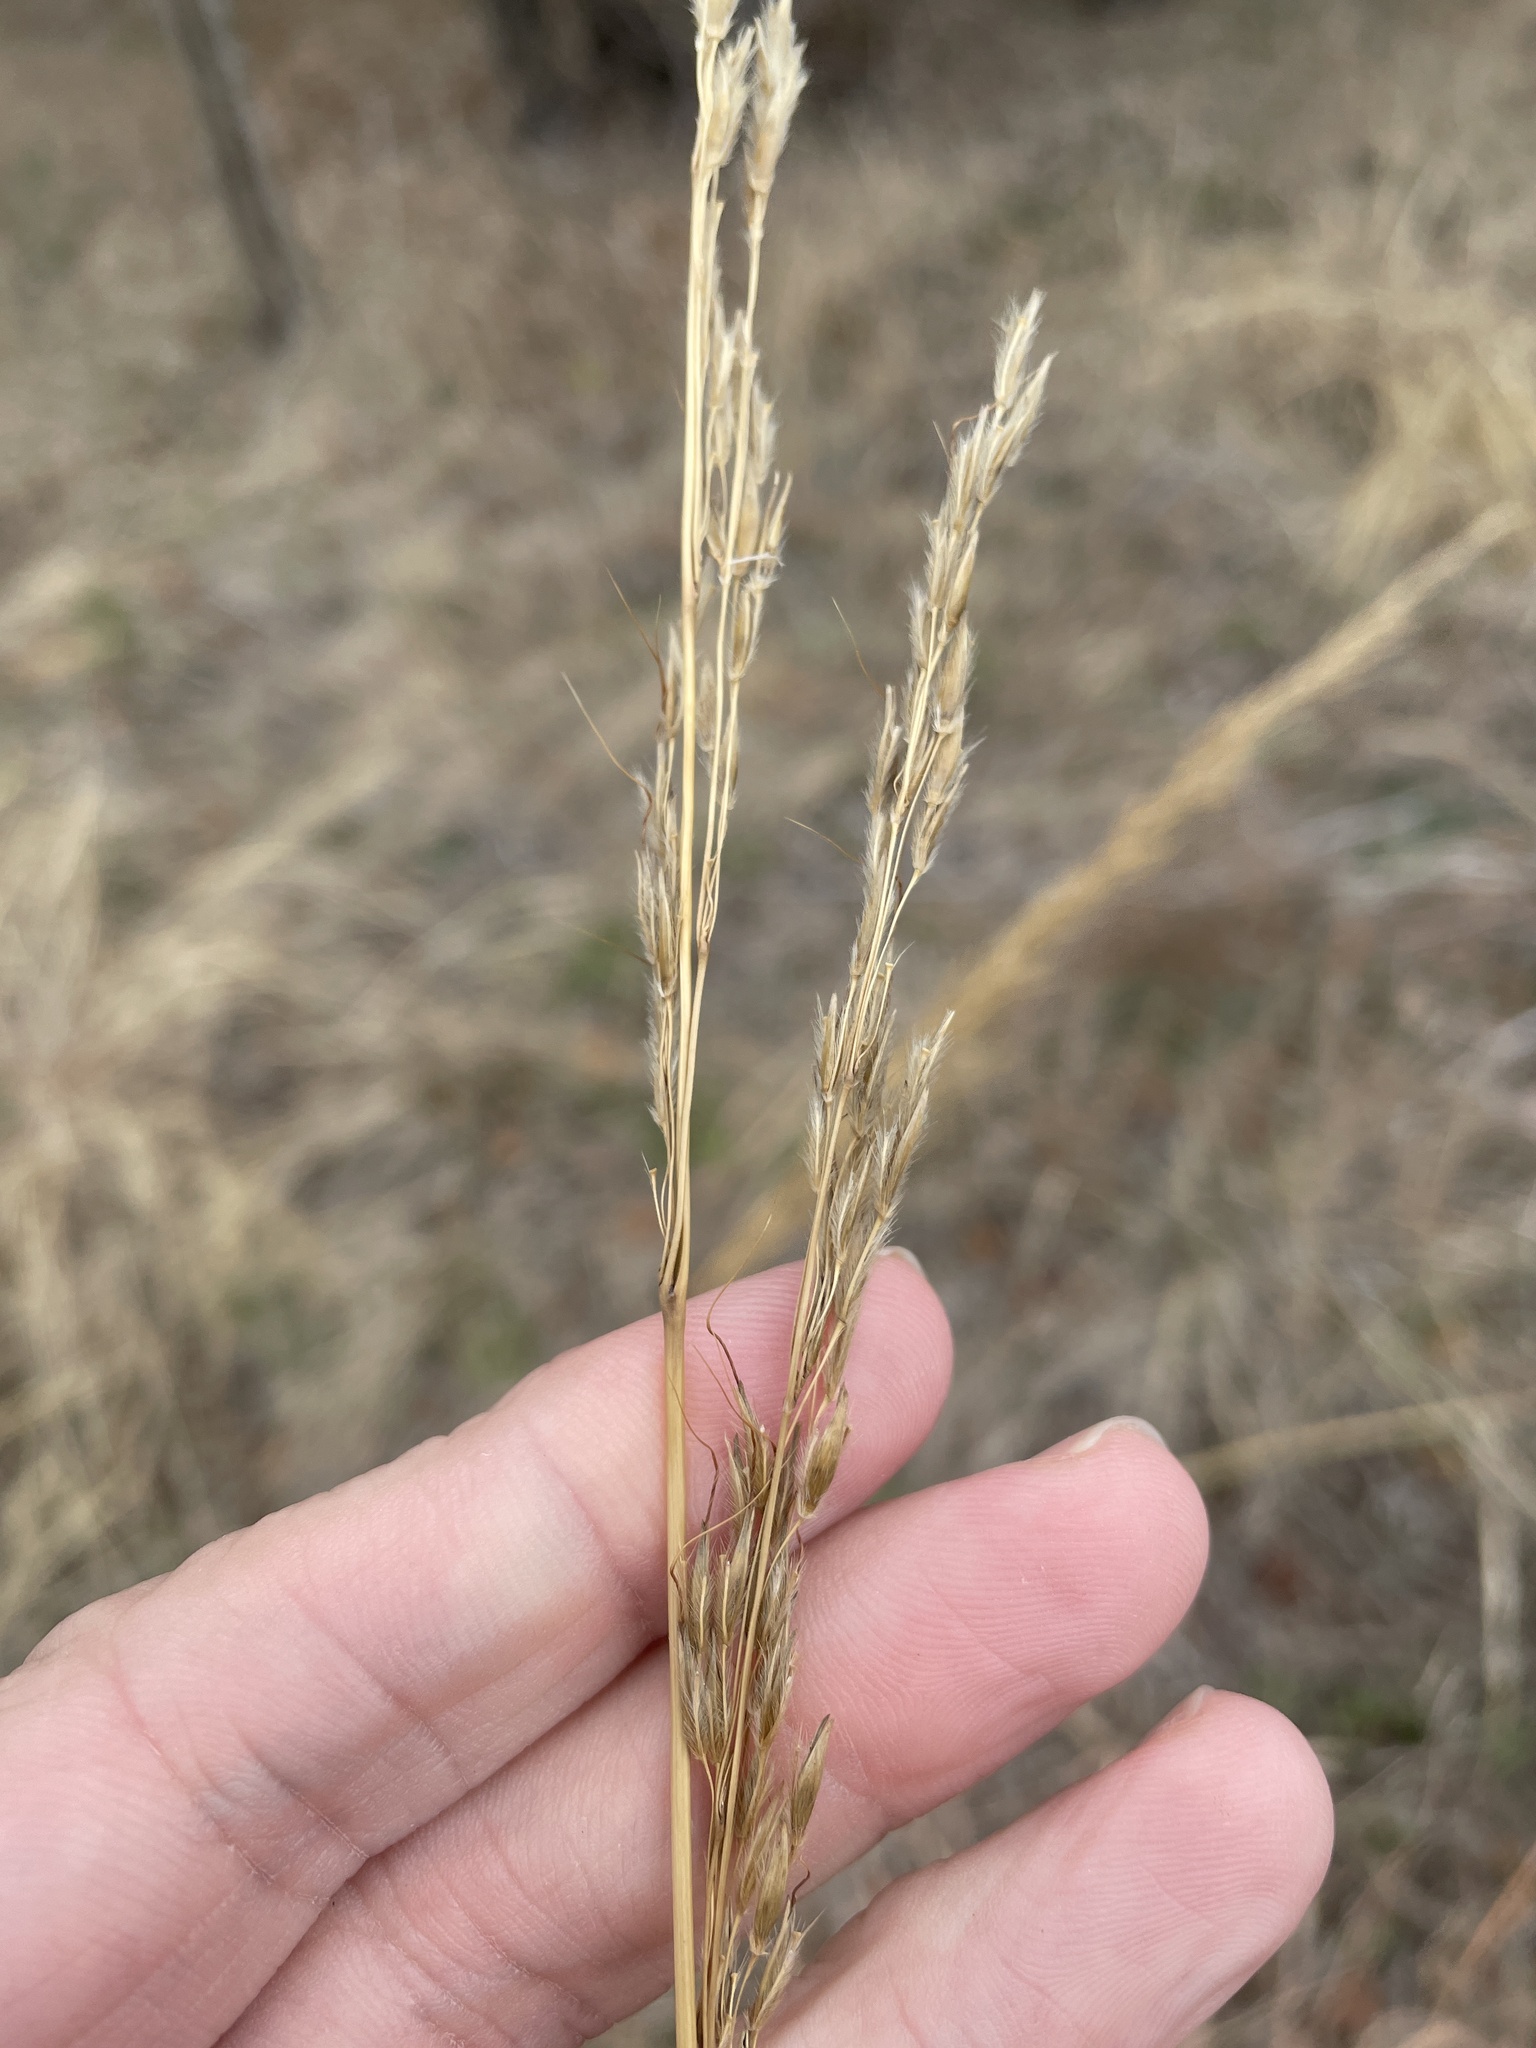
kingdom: Plantae
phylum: Tracheophyta
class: Liliopsida
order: Poales
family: Poaceae
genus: Sorghastrum
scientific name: Sorghastrum nutans
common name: Indian grass
